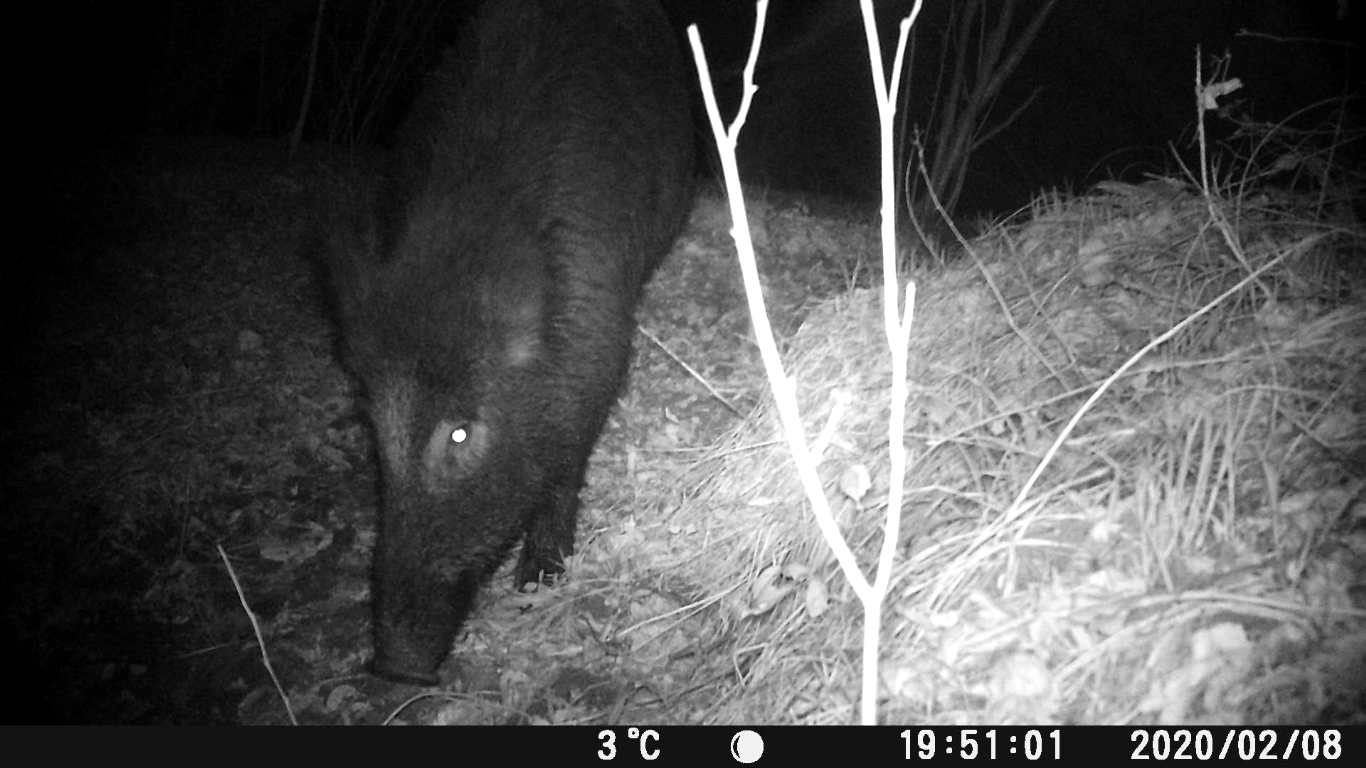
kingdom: Animalia
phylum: Chordata
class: Mammalia
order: Artiodactyla
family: Suidae
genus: Sus
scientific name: Sus scrofa
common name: Wild boar
